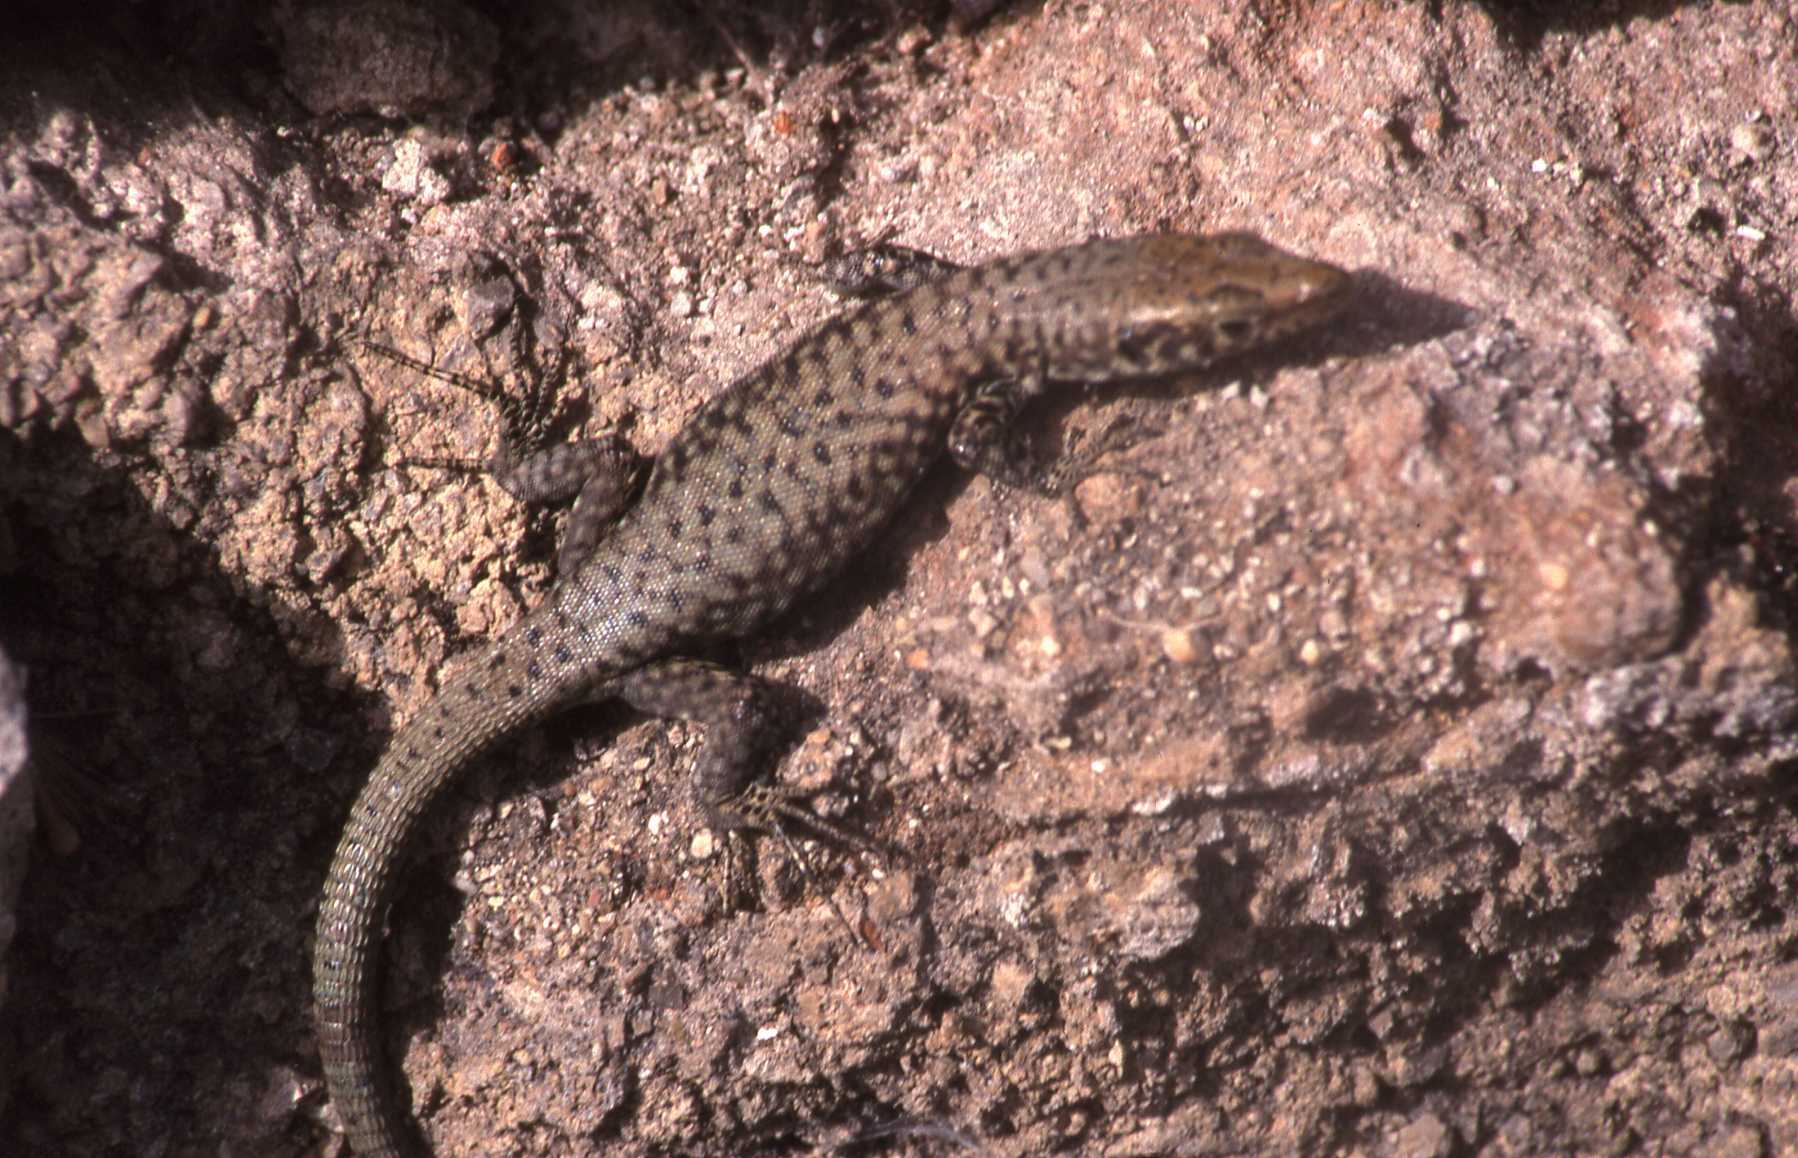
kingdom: Animalia
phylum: Chordata
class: Squamata
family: Lacertidae
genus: Hellenolacerta
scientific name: Hellenolacerta graeca
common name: Greek rock lizard
